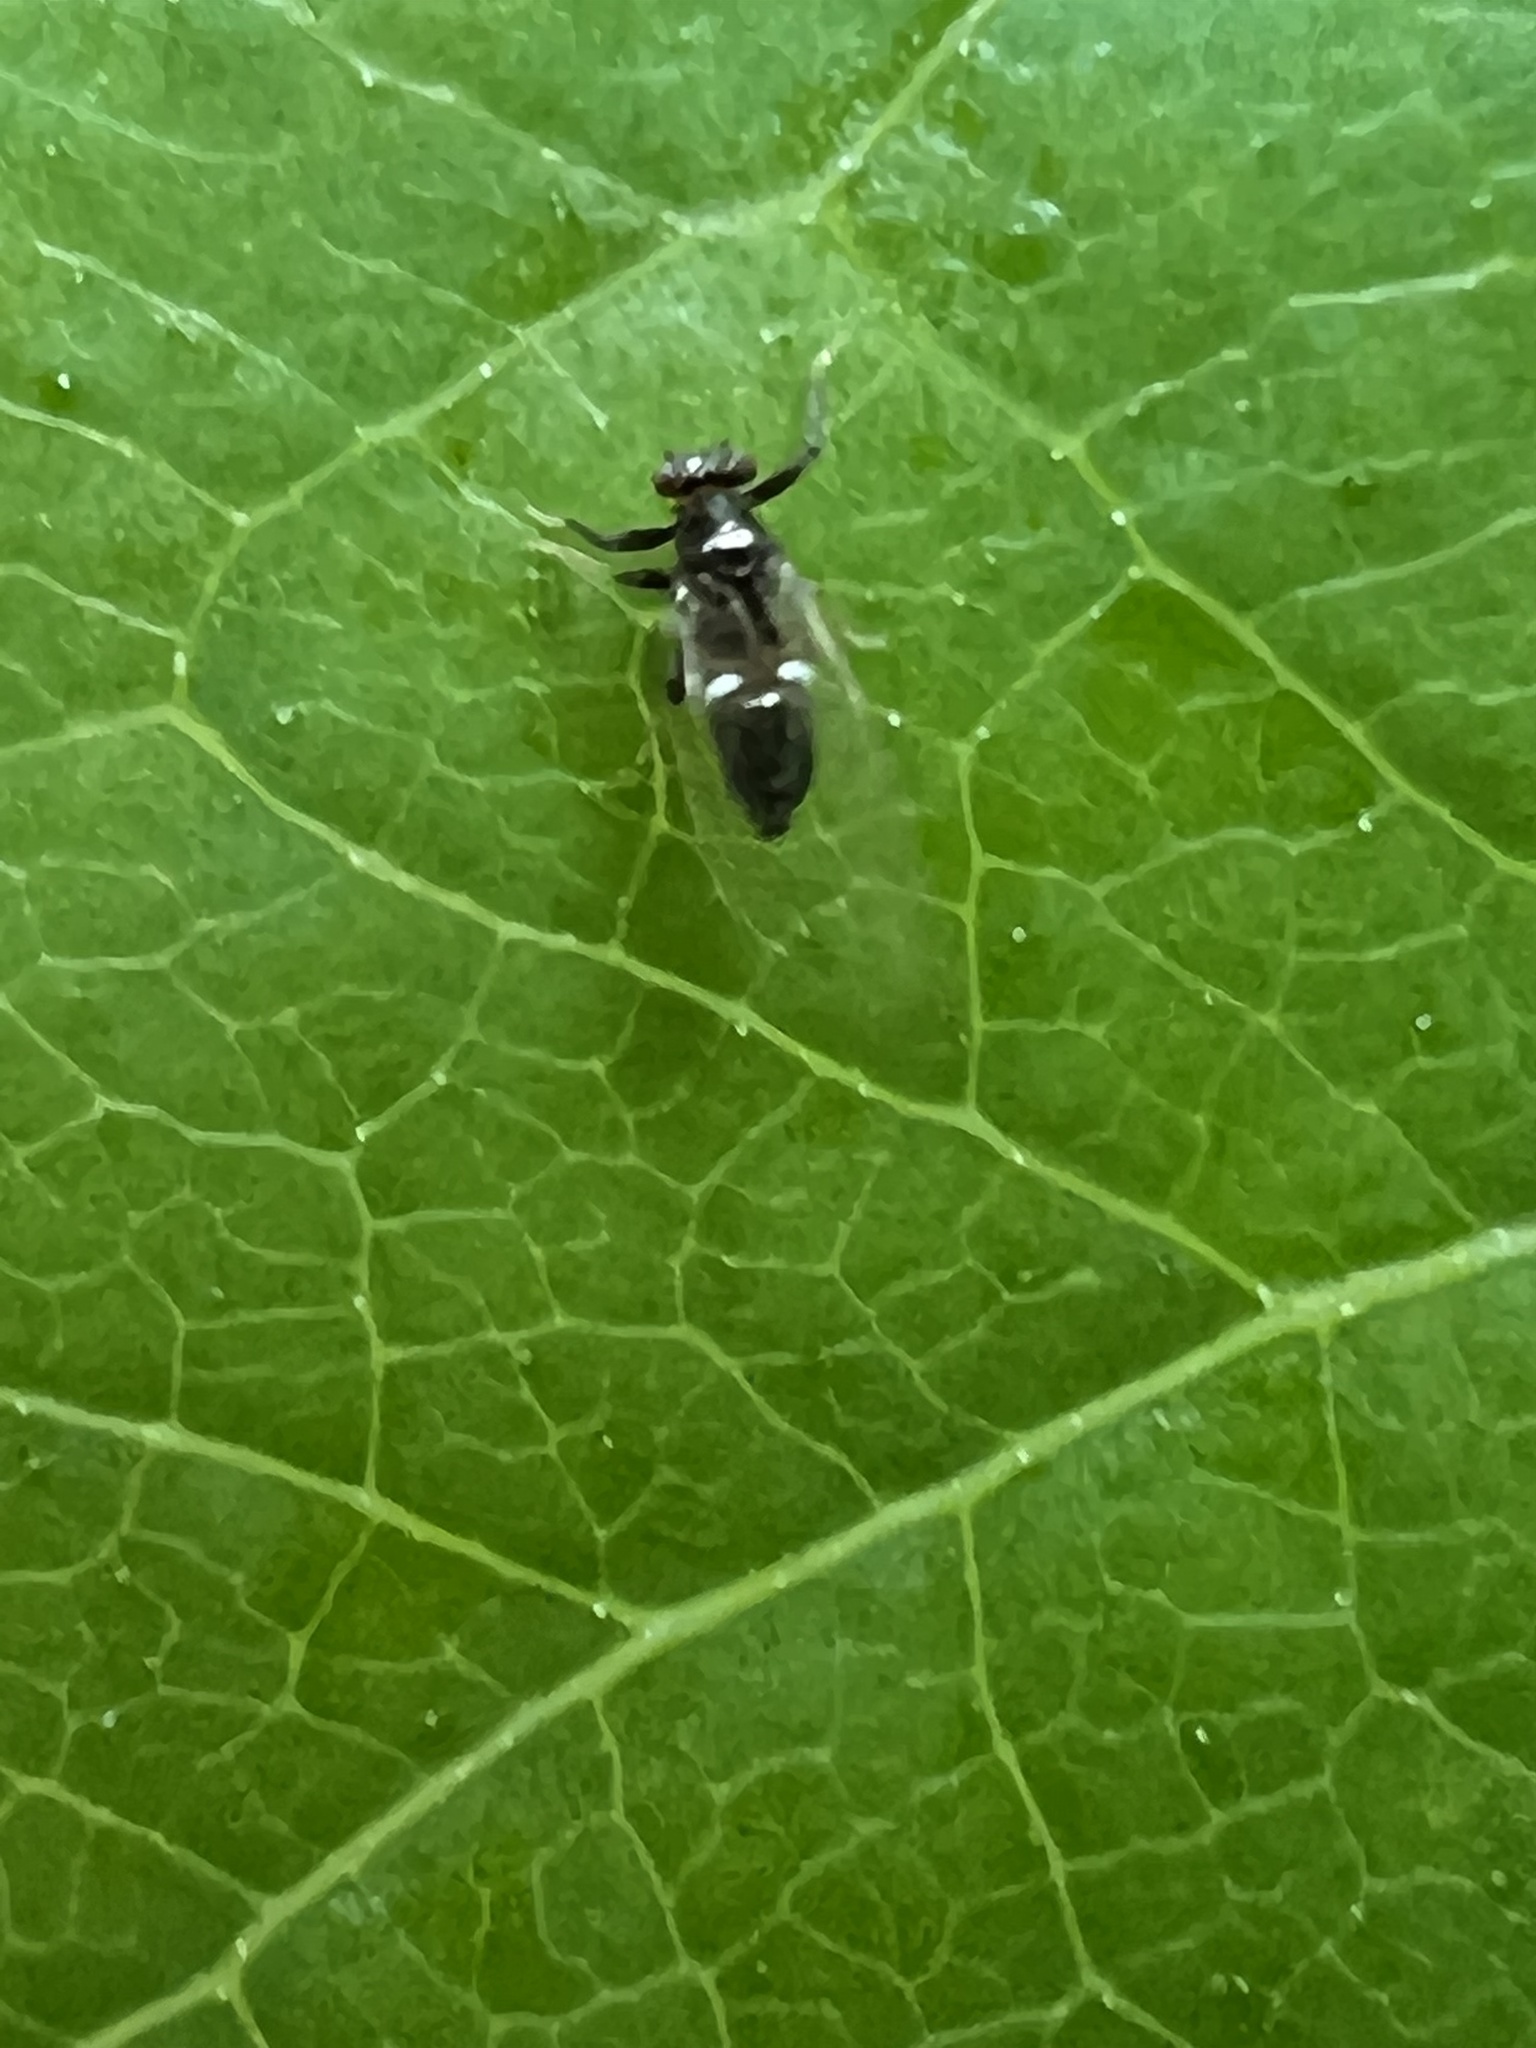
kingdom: Animalia
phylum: Arthropoda
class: Insecta
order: Hemiptera
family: Triozidae
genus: Baeoalitriozus
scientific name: Baeoalitriozus diospyri
